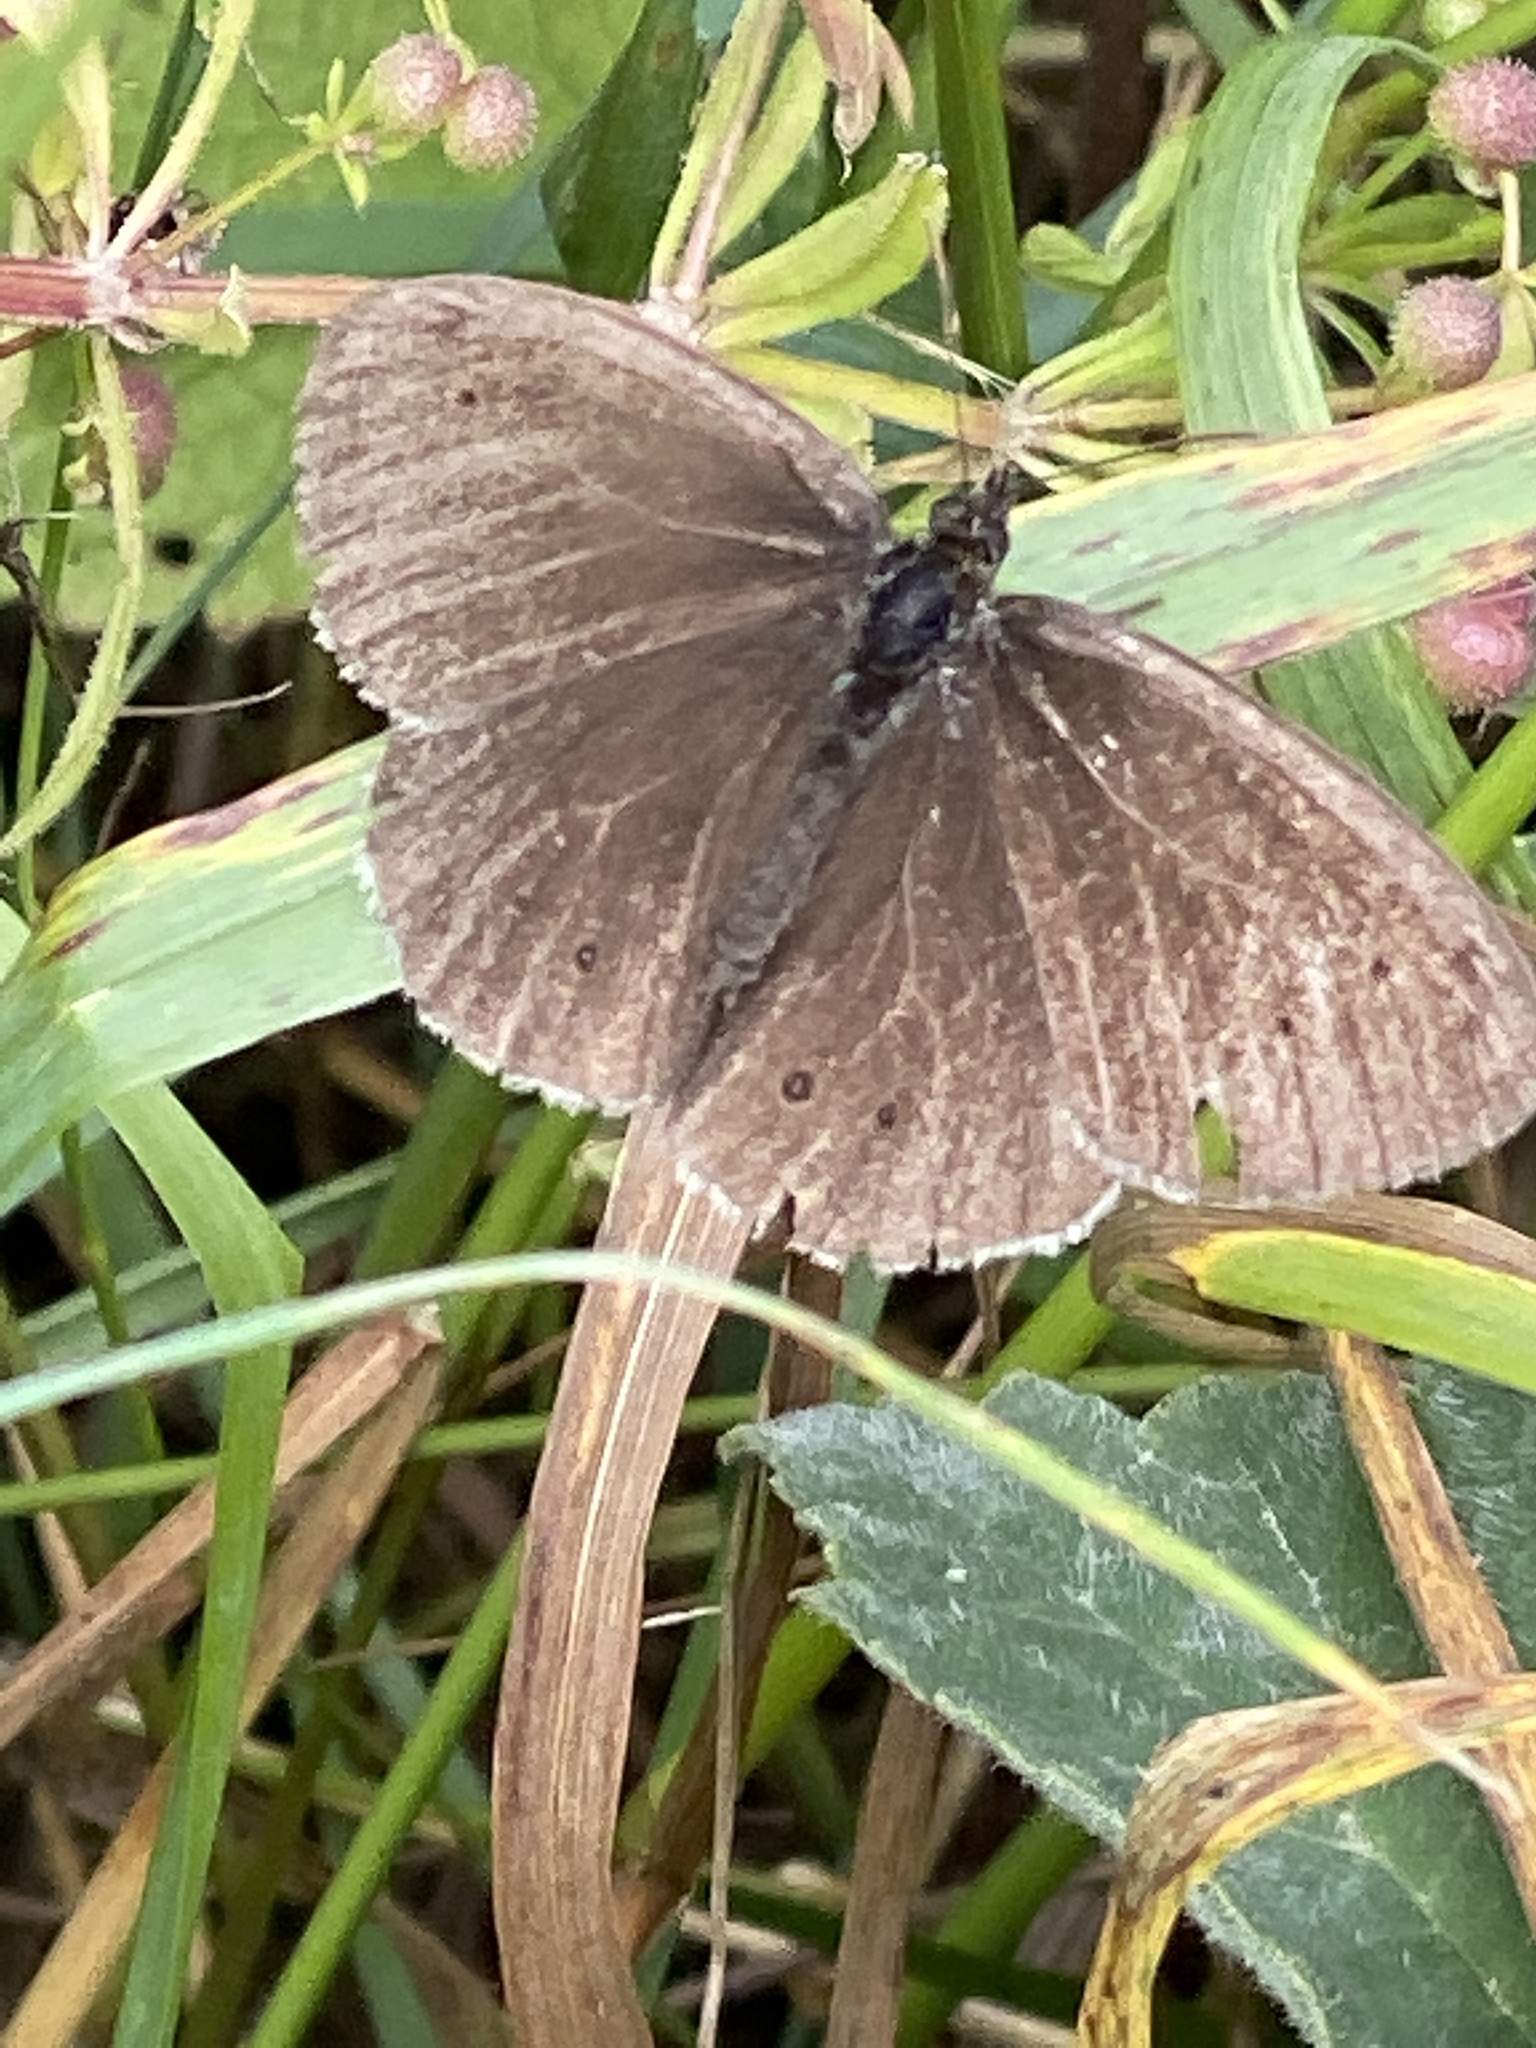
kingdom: Animalia
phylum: Arthropoda
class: Insecta
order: Lepidoptera
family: Nymphalidae
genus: Aphantopus
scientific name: Aphantopus hyperantus
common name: Ringlet
